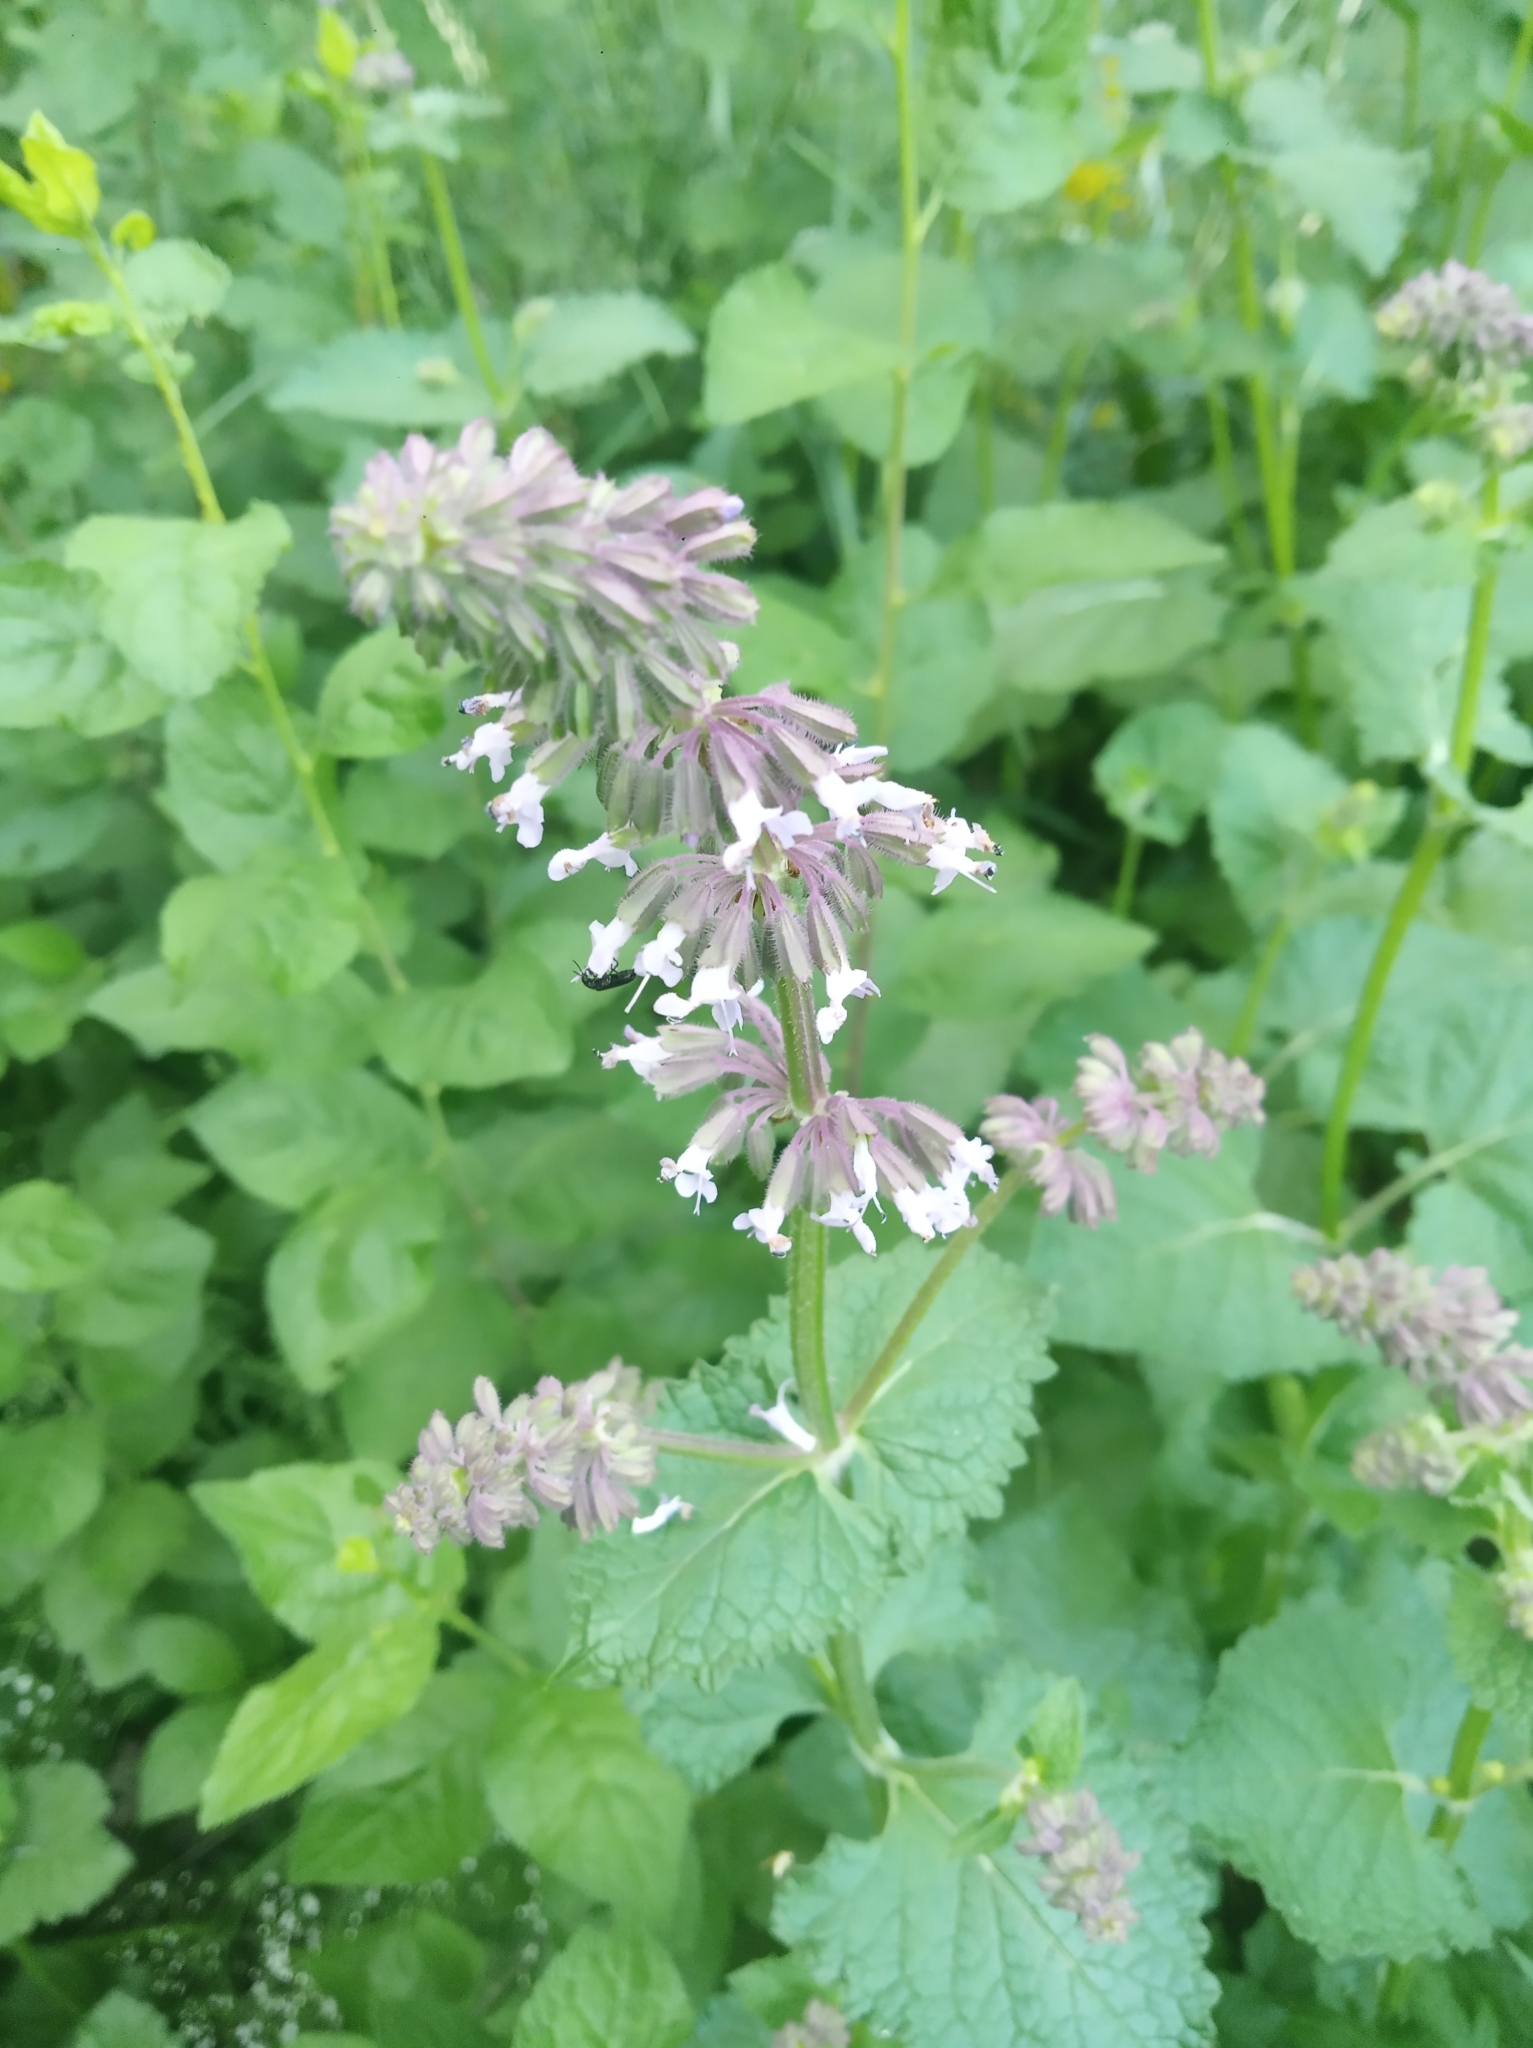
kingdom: Plantae
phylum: Tracheophyta
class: Magnoliopsida
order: Lamiales
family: Lamiaceae
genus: Salvia
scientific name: Salvia verticillata
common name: Whorled clary
